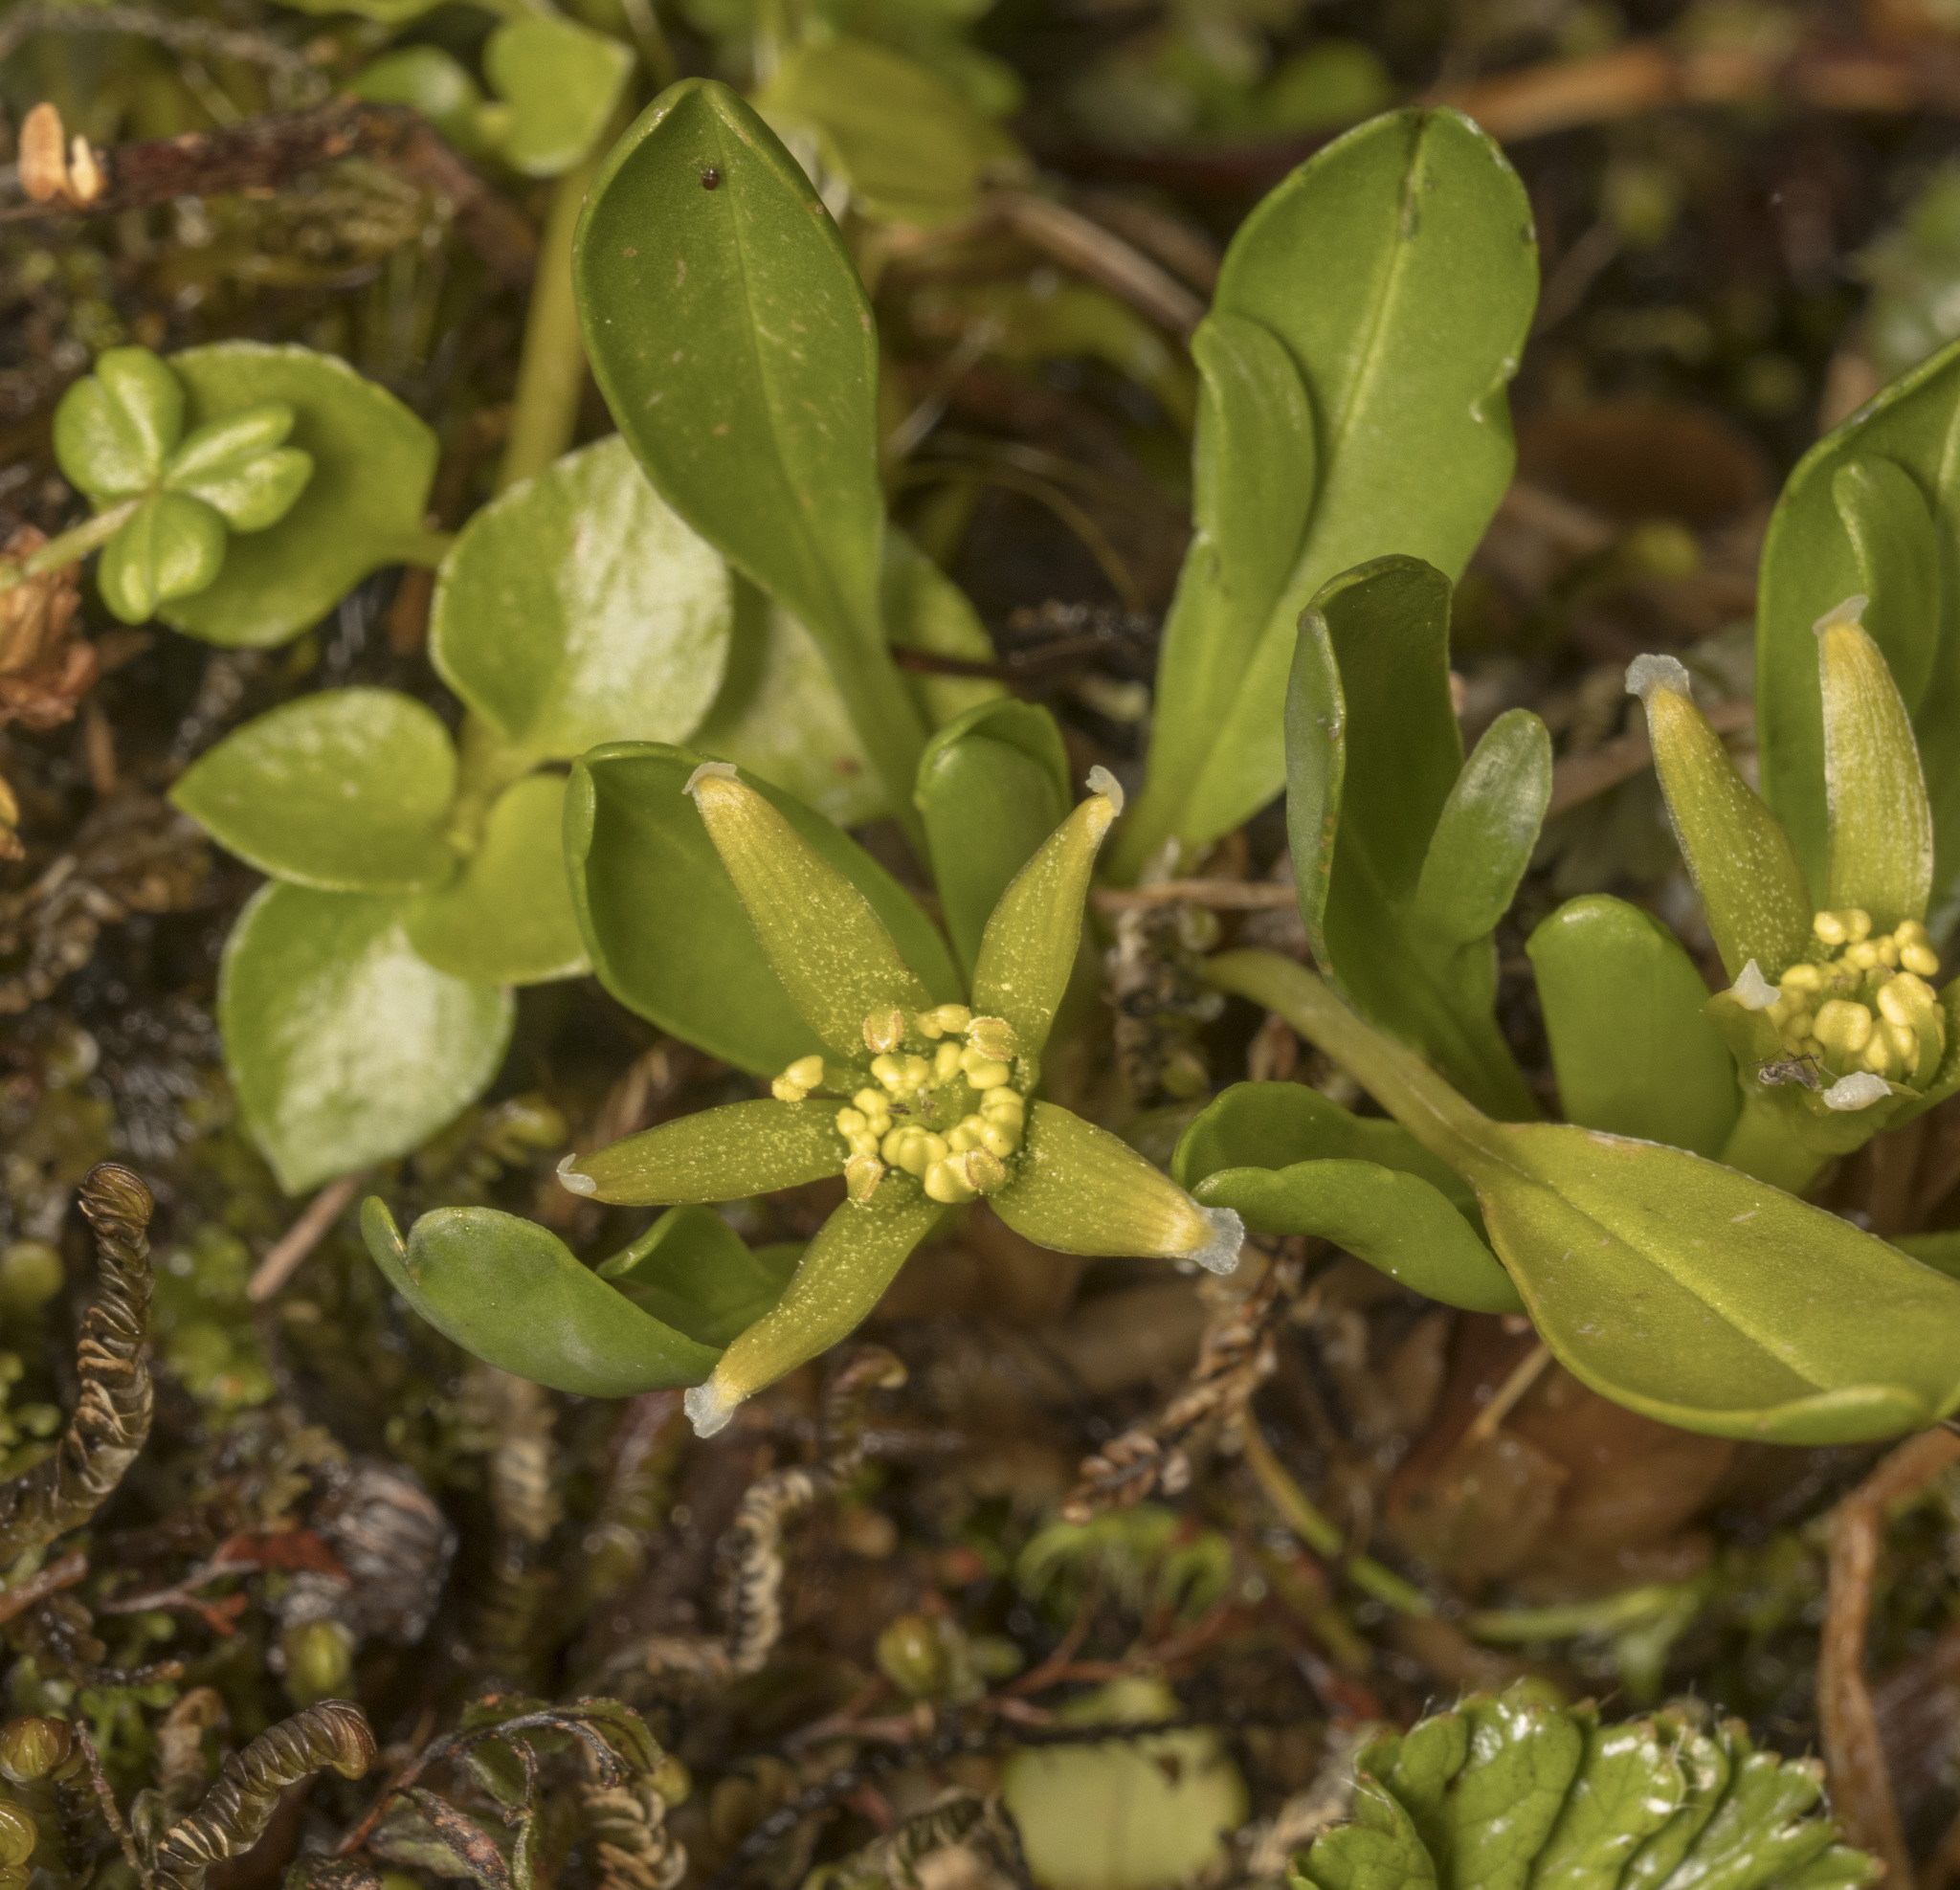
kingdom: Plantae
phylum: Tracheophyta
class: Magnoliopsida
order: Ranunculales
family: Ranunculaceae
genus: Caltha
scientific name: Caltha appendiculata
